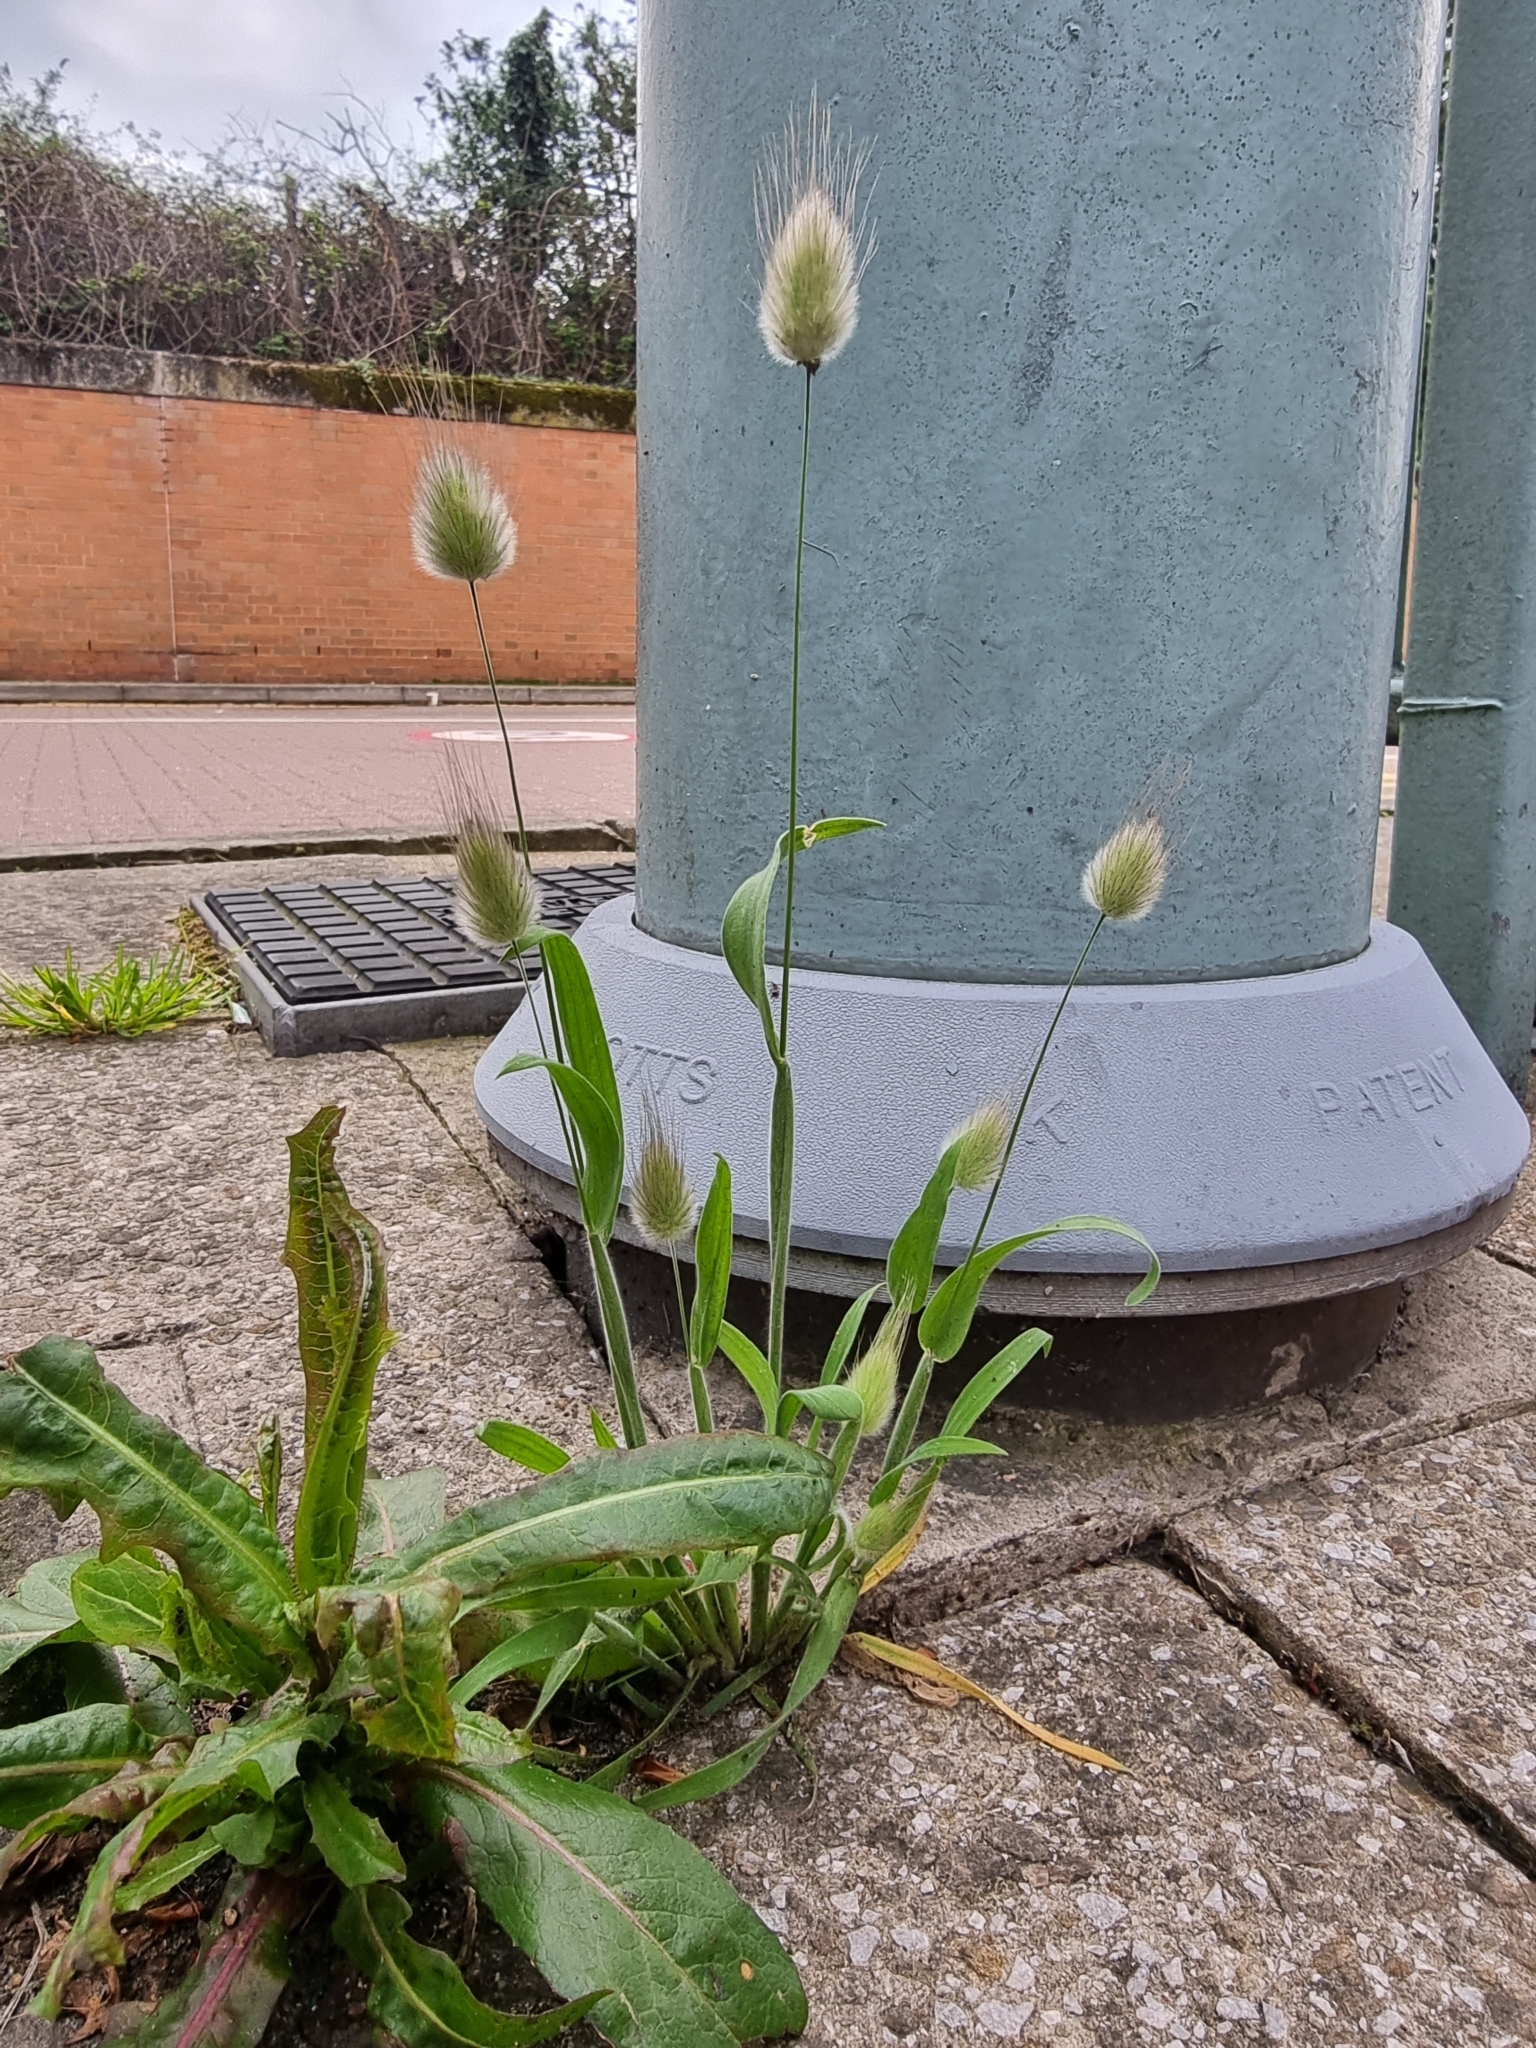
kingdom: Plantae
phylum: Tracheophyta
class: Liliopsida
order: Poales
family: Poaceae
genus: Lagurus
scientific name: Lagurus ovatus
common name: Hare's-tail
